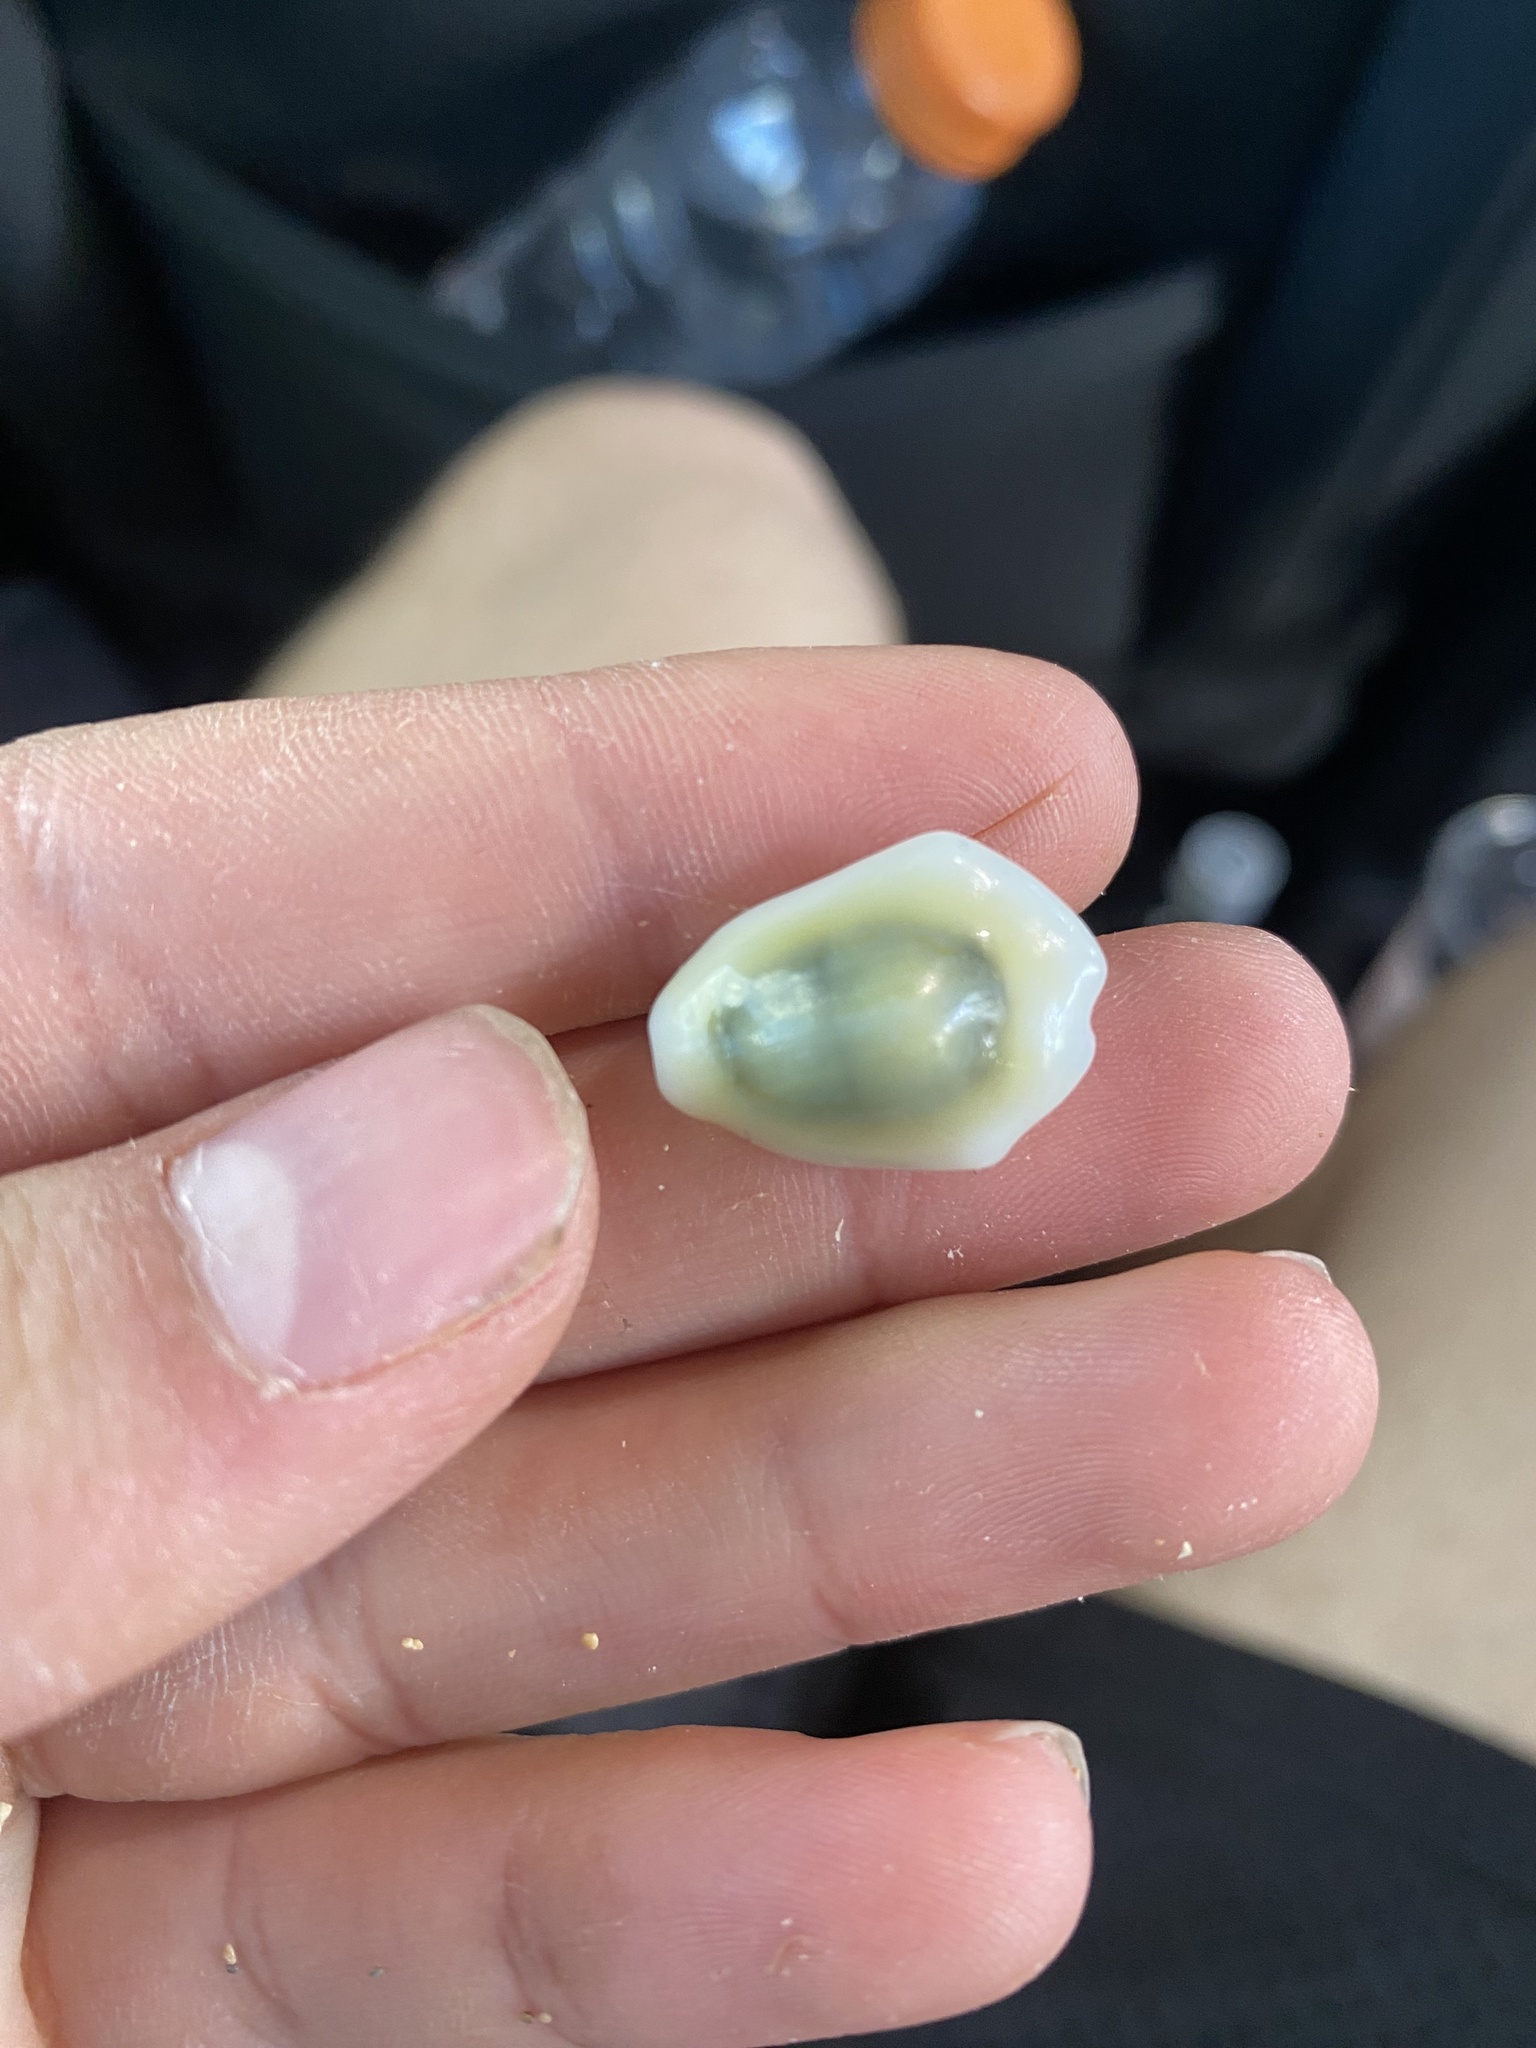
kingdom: Animalia
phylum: Mollusca
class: Gastropoda
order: Littorinimorpha
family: Cypraeidae
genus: Monetaria
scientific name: Monetaria moneta
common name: Money cowrie
